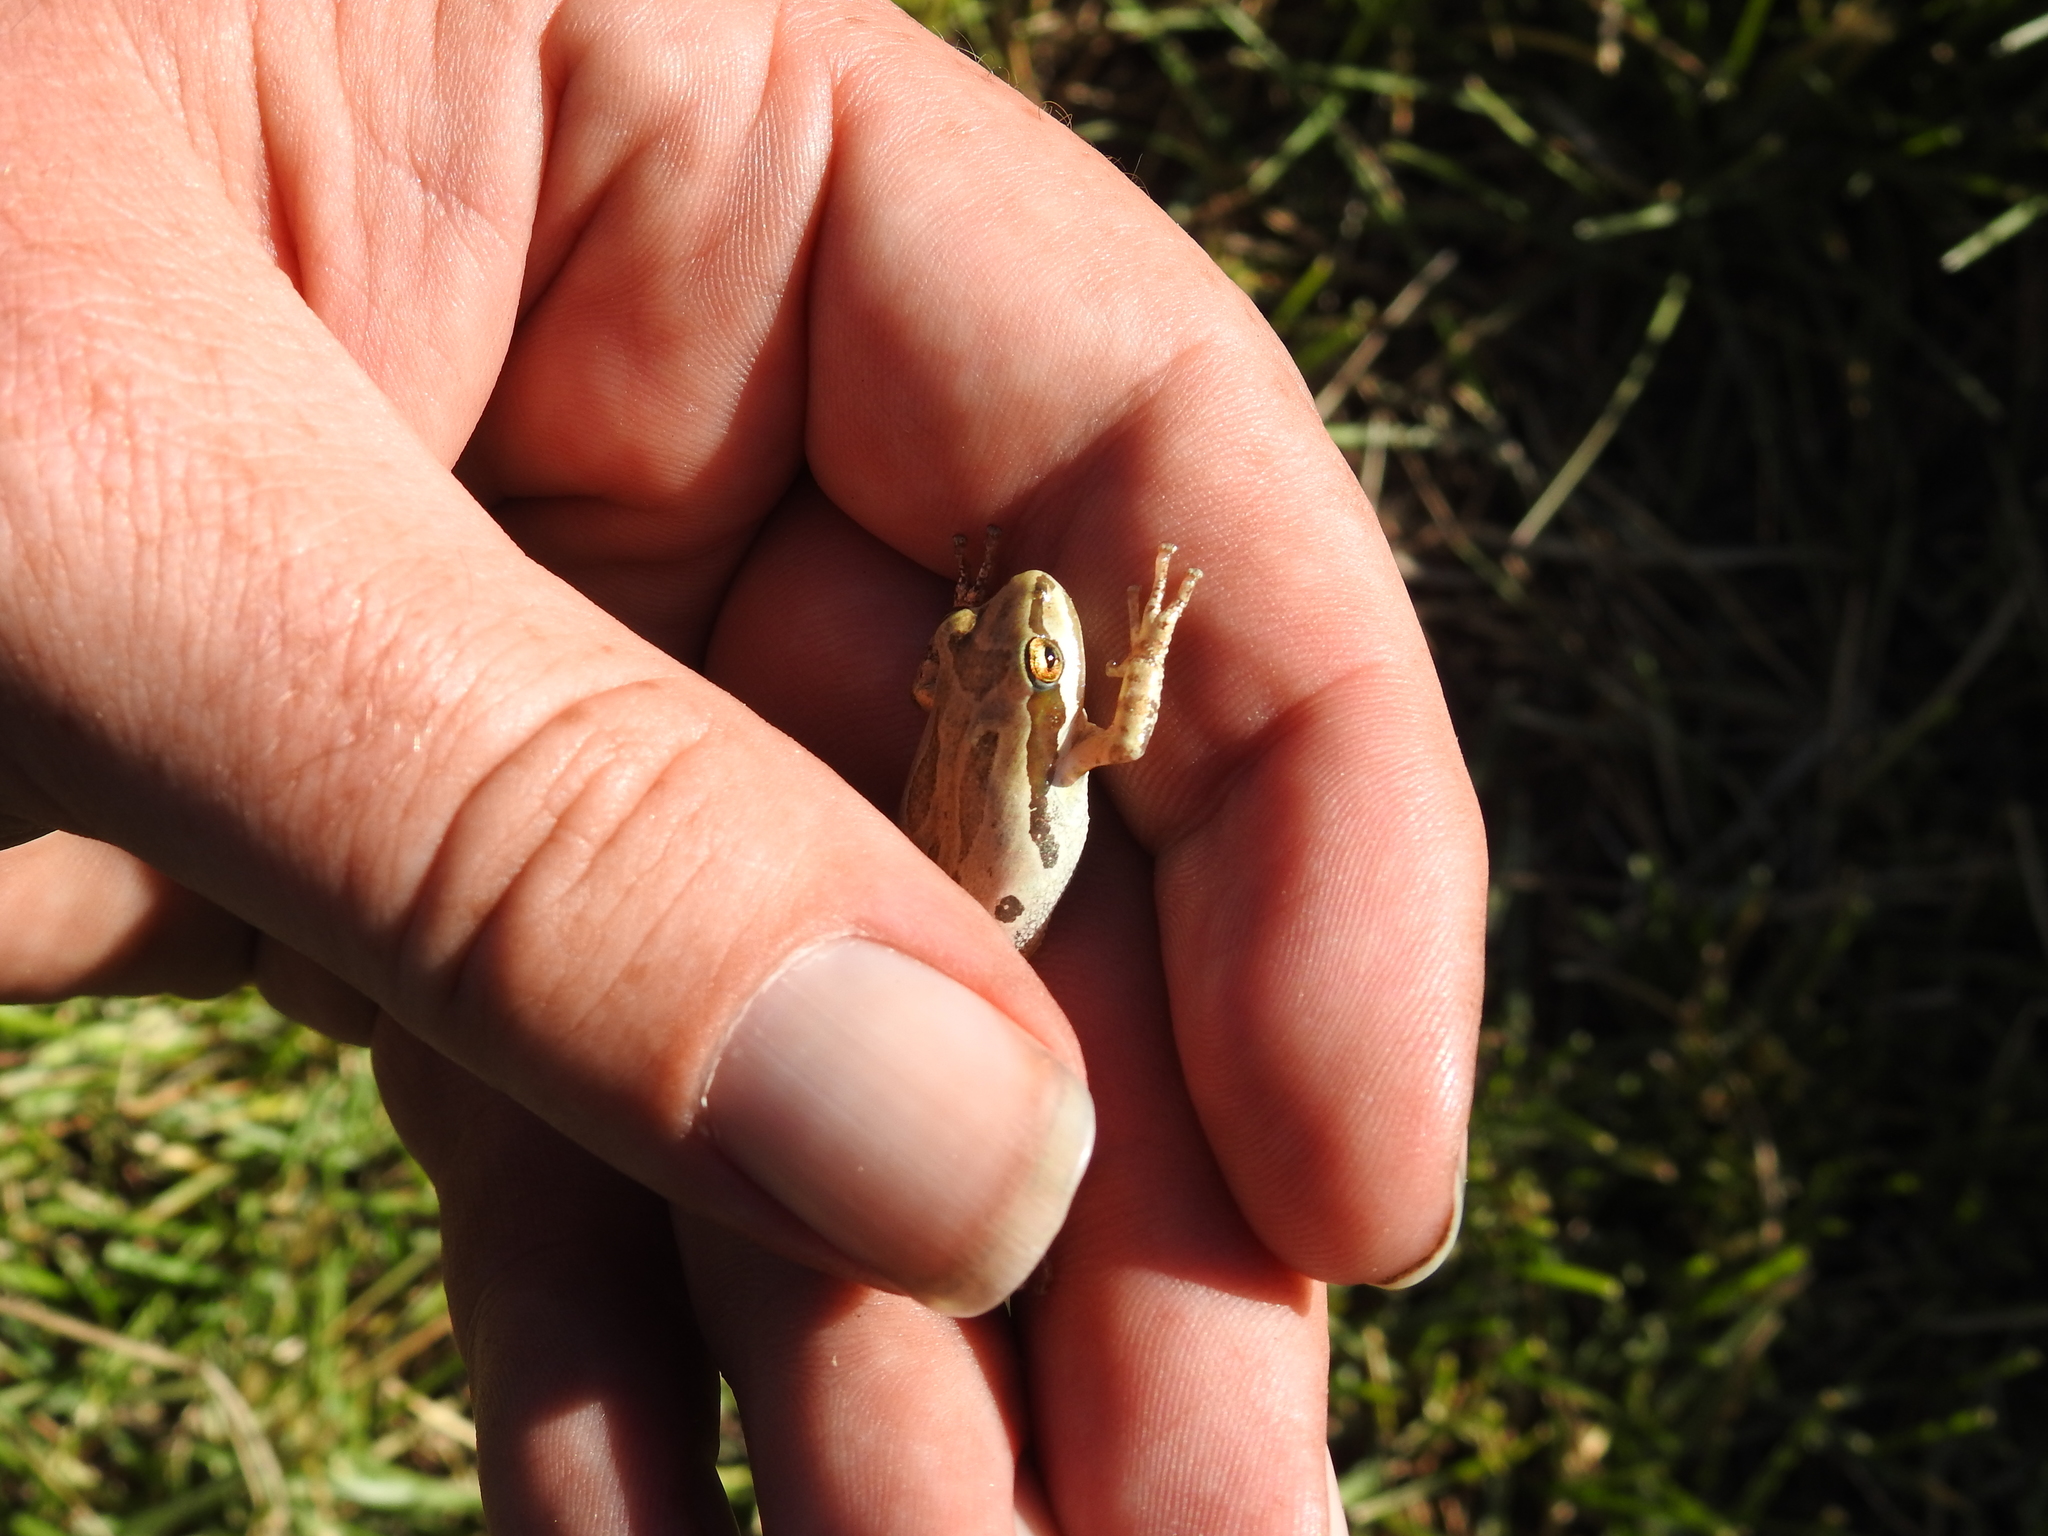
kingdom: Animalia
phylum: Chordata
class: Amphibia
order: Anura
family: Hylidae
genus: Pseudacris
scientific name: Pseudacris regilla
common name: Pacific chorus frog
